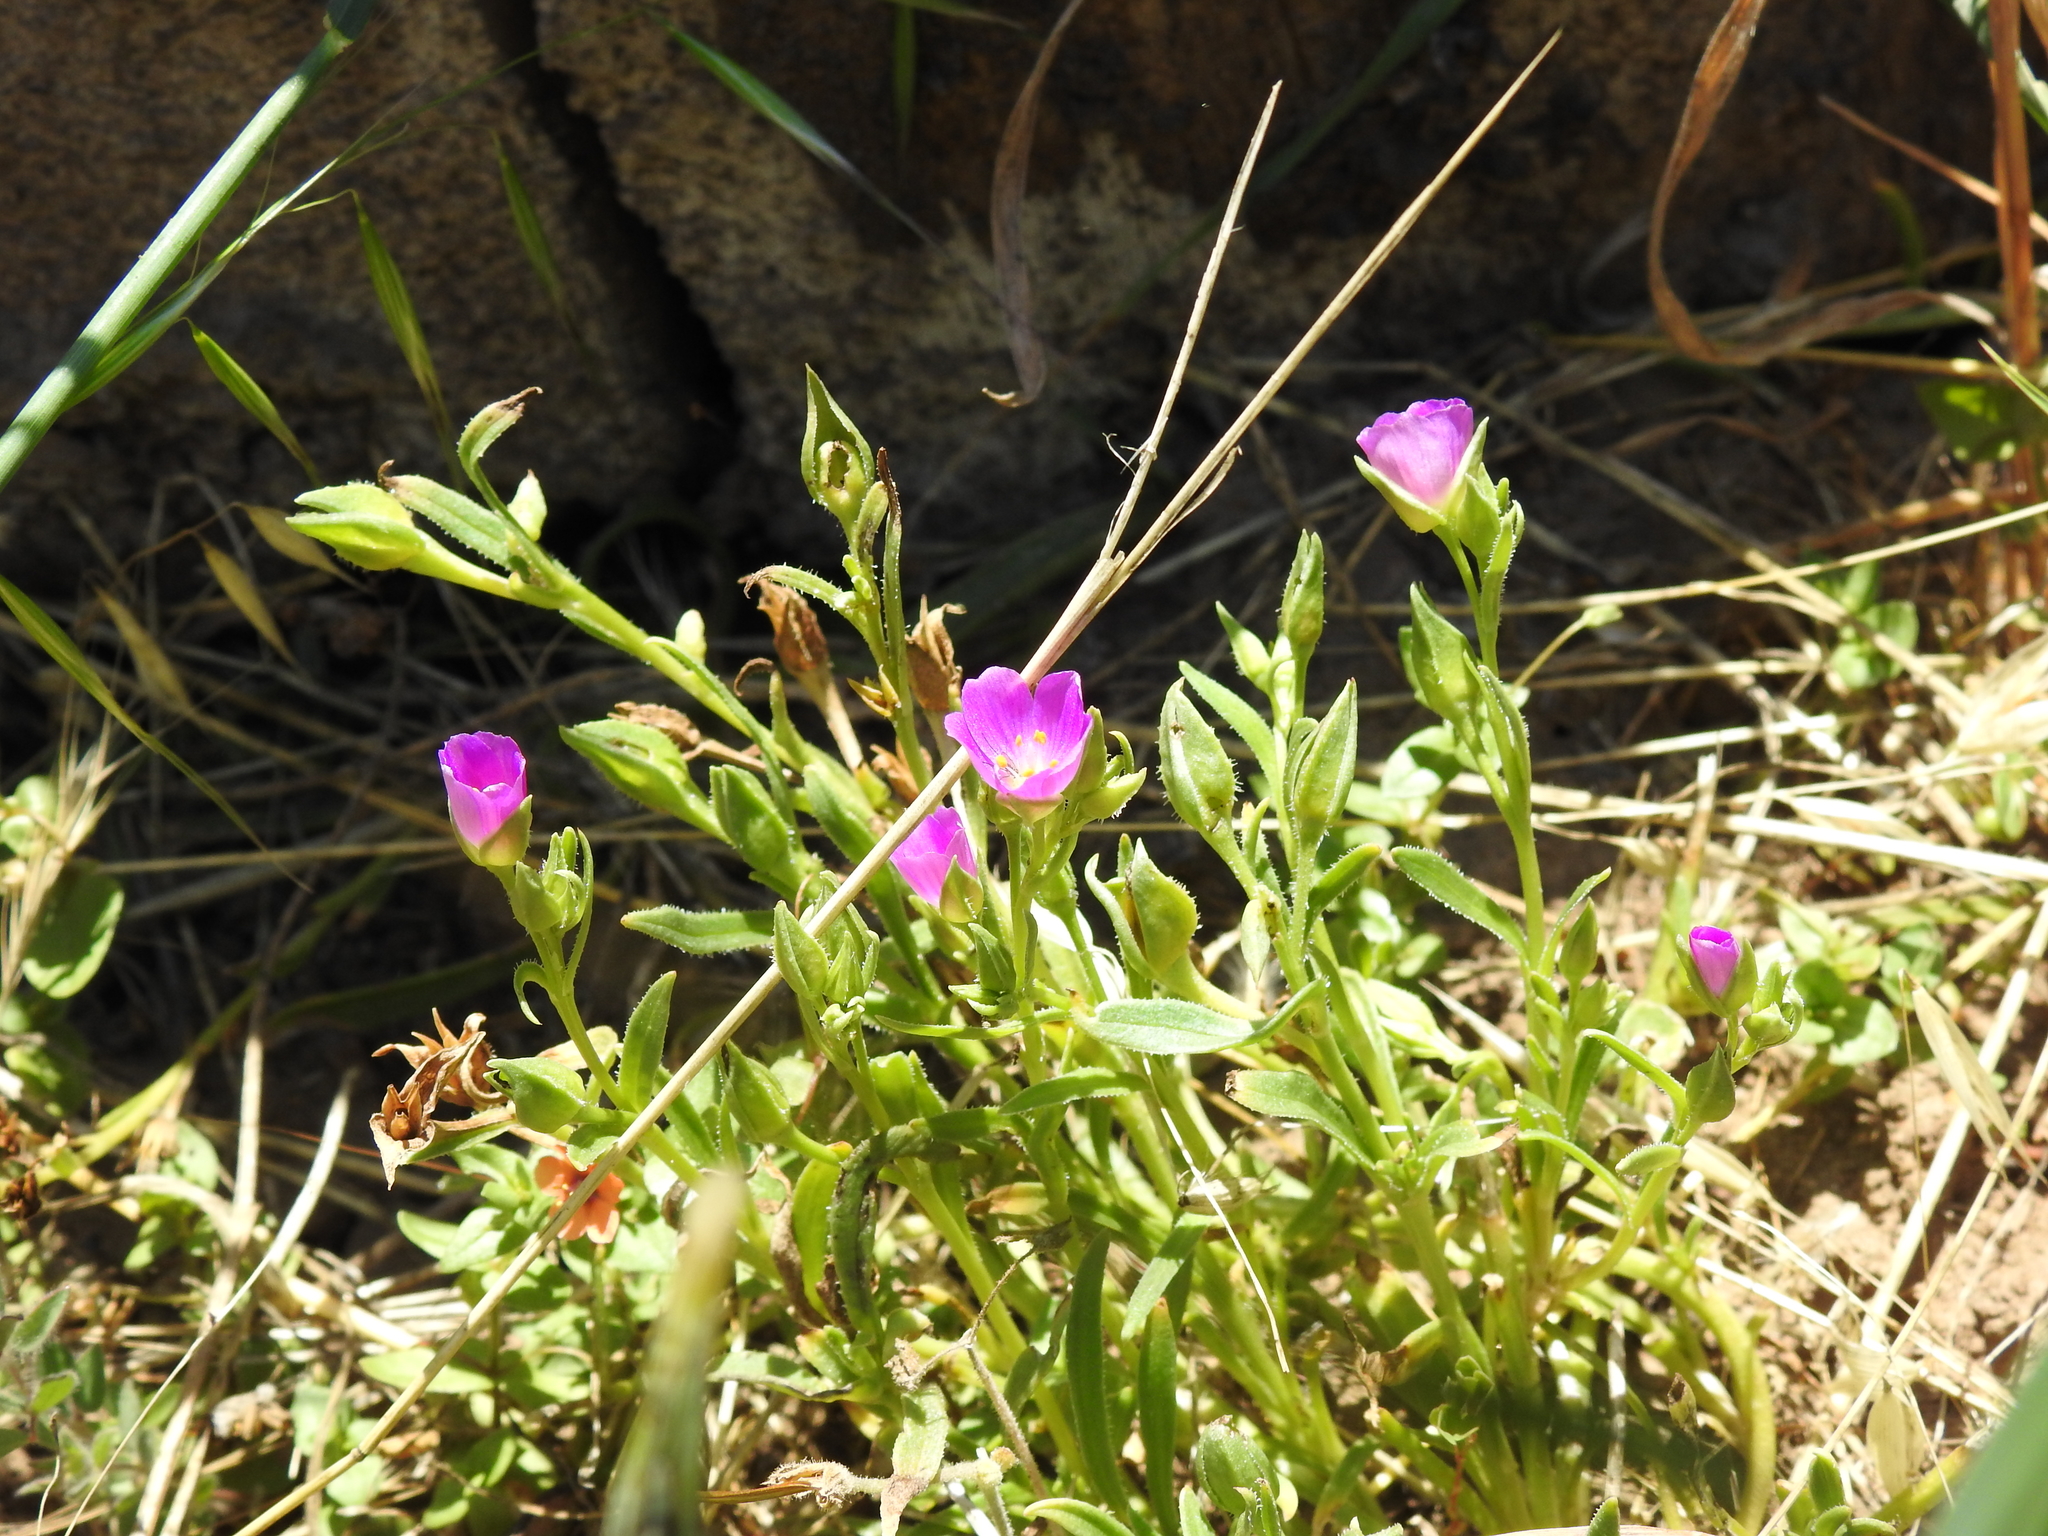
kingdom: Plantae
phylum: Tracheophyta
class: Magnoliopsida
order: Caryophyllales
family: Montiaceae
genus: Calandrinia
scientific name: Calandrinia menziesii
